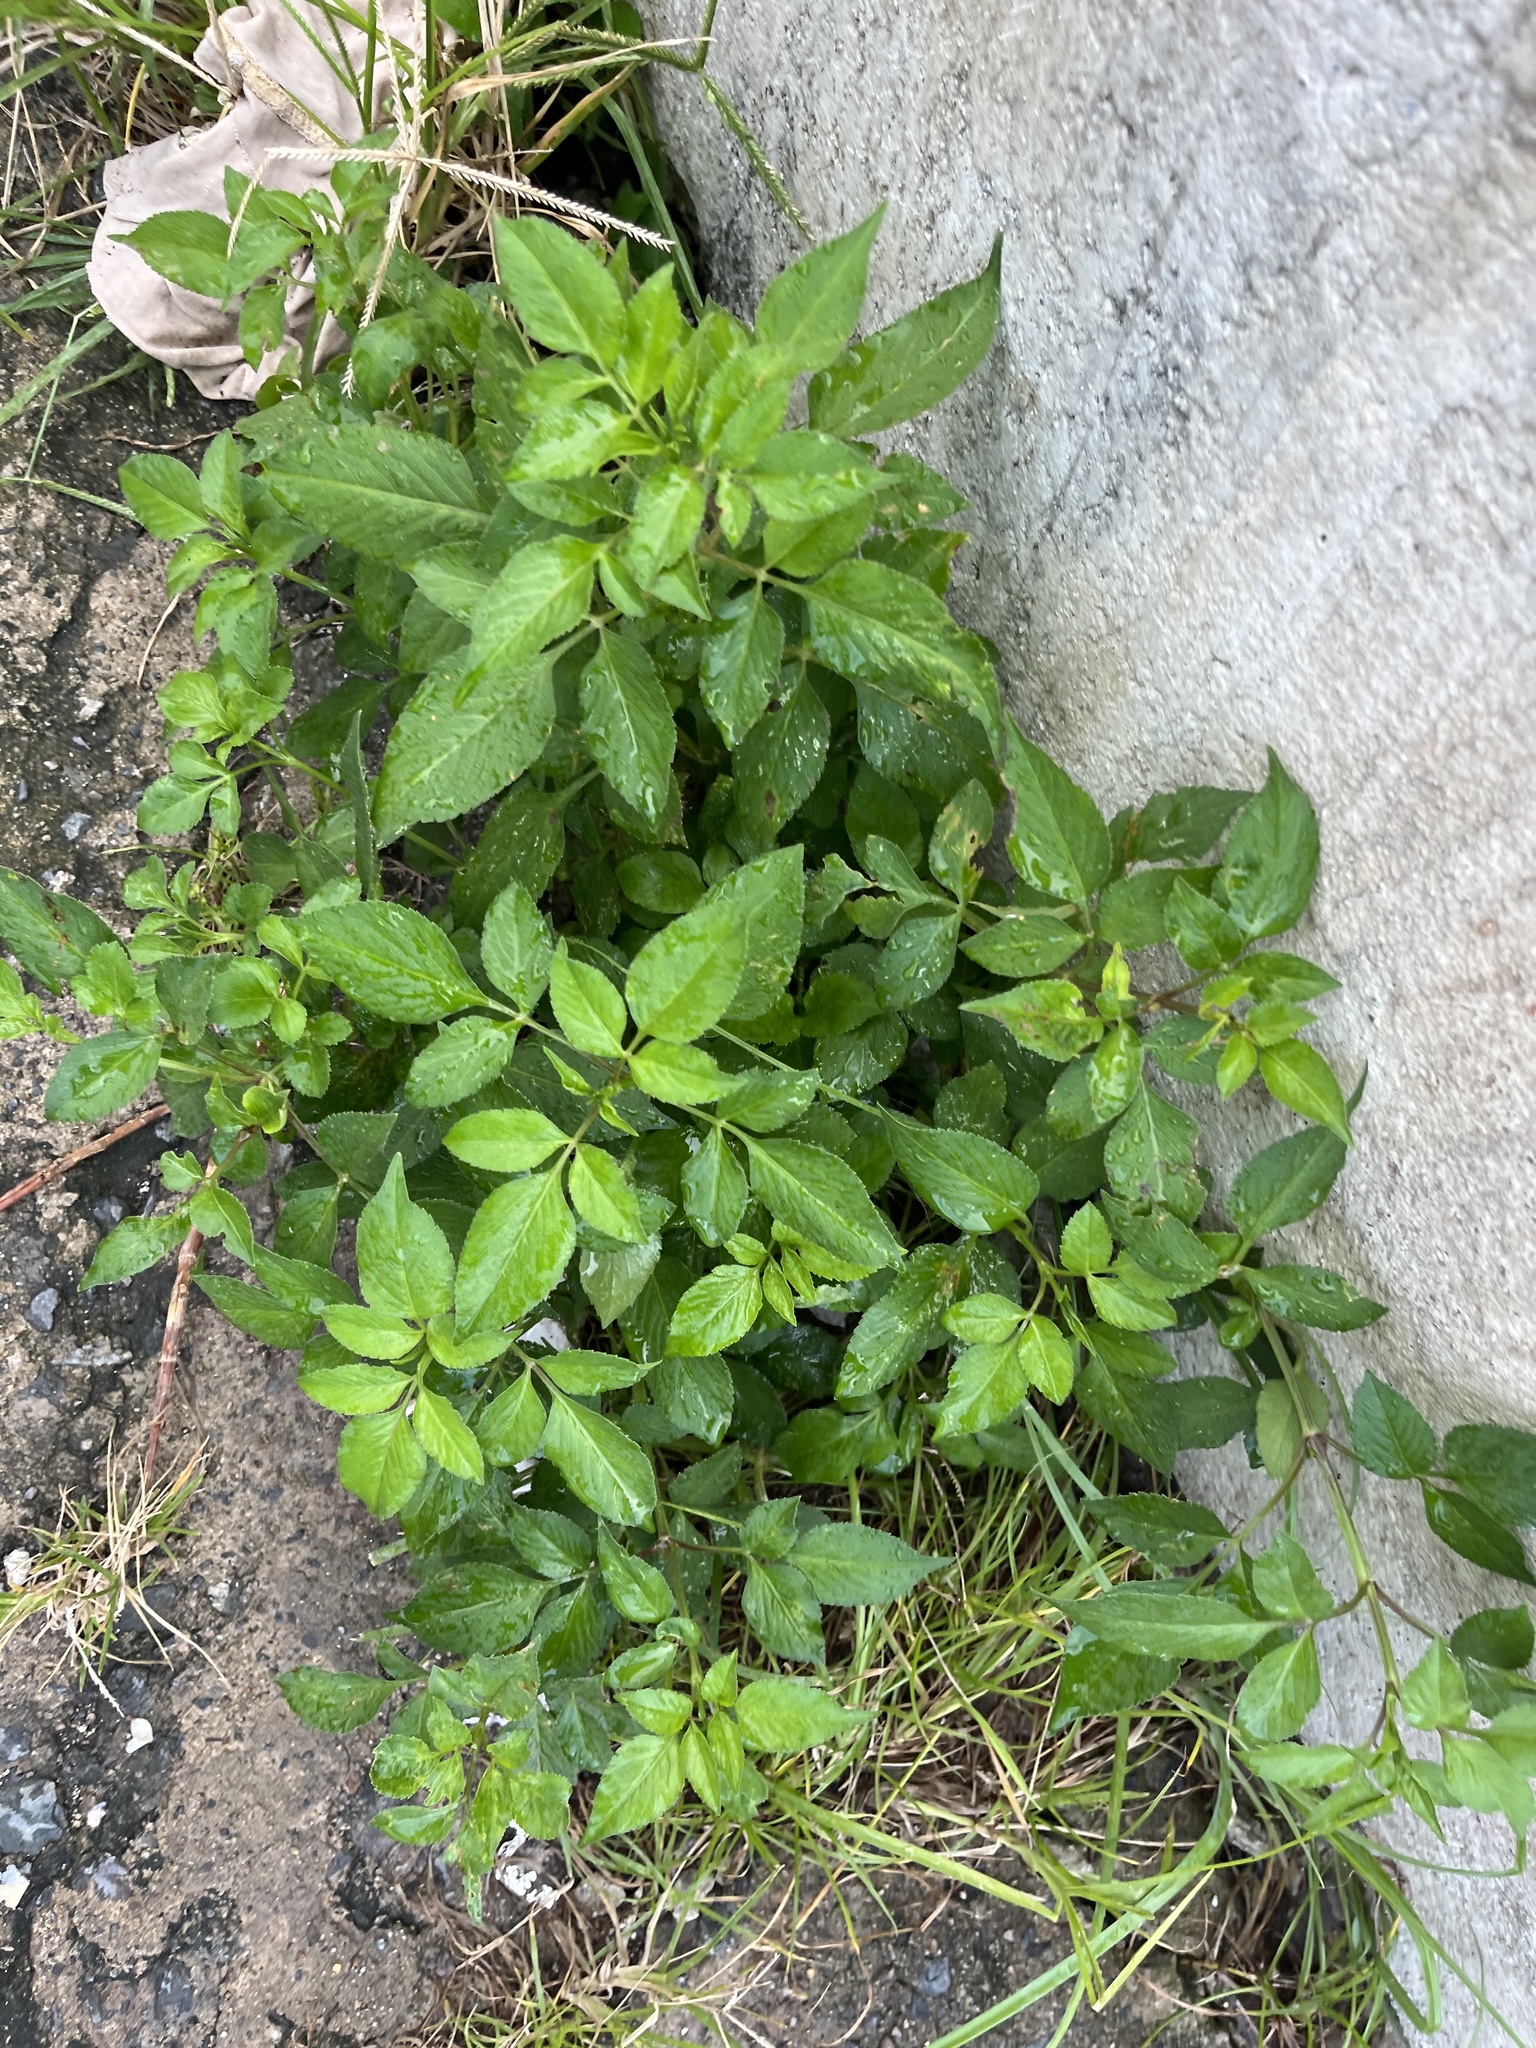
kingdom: Plantae
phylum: Tracheophyta
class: Magnoliopsida
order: Asterales
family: Asteraceae
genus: Bidens
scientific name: Bidens alba
